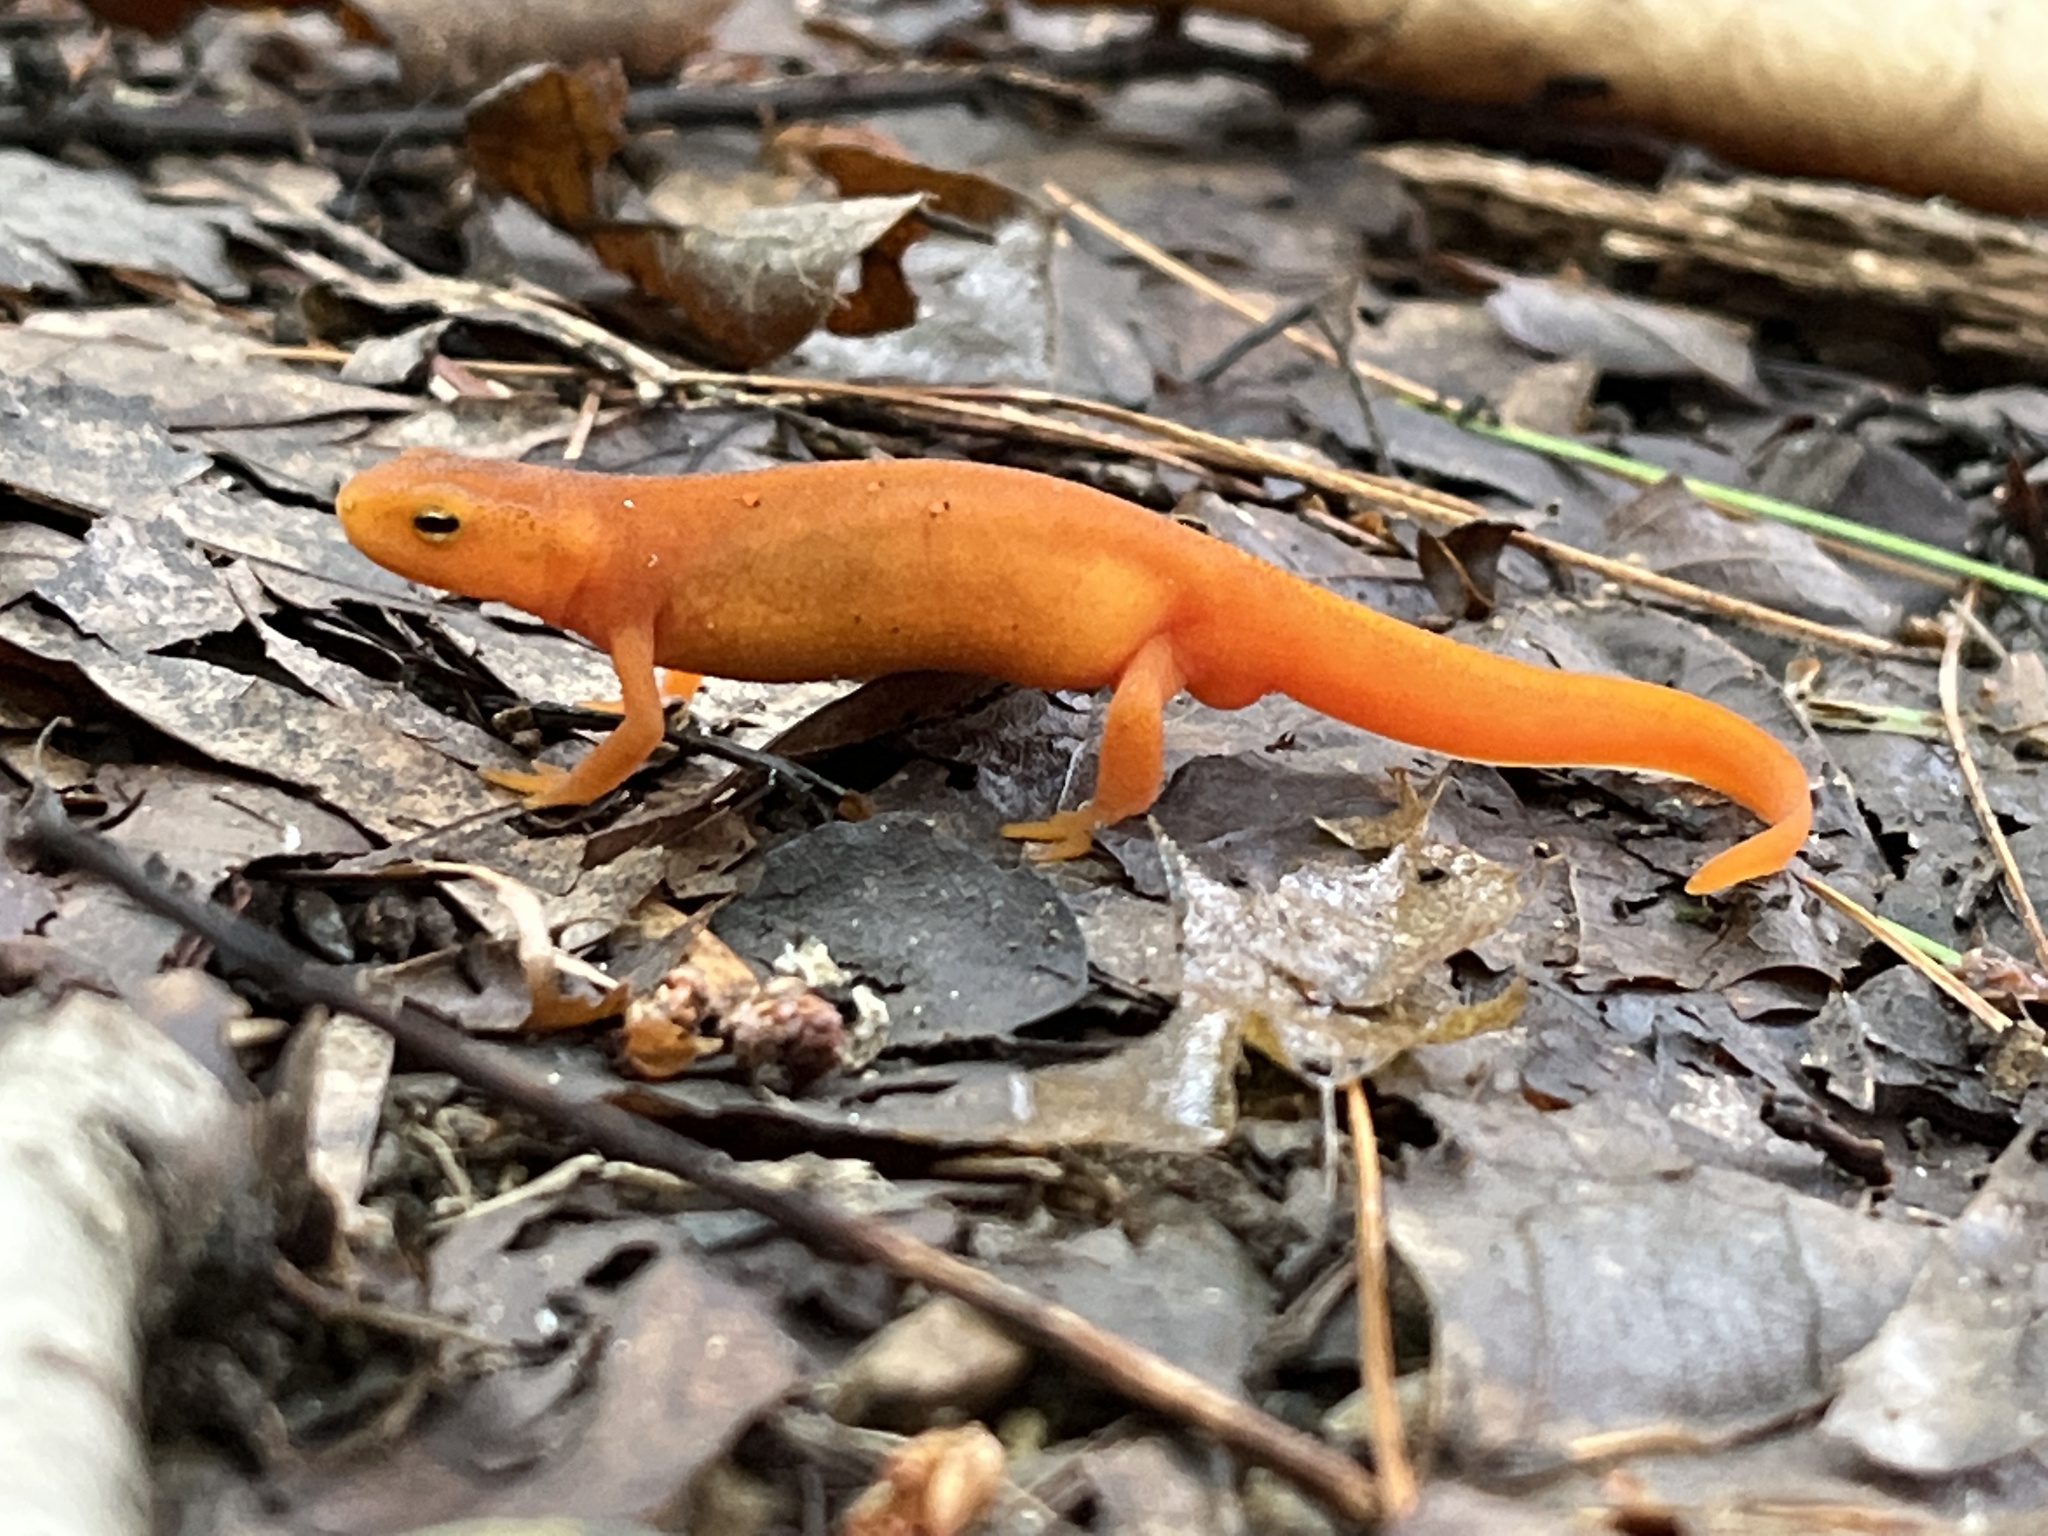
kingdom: Animalia
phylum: Chordata
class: Amphibia
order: Caudata
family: Salamandridae
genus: Notophthalmus
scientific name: Notophthalmus viridescens
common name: Eastern newt
